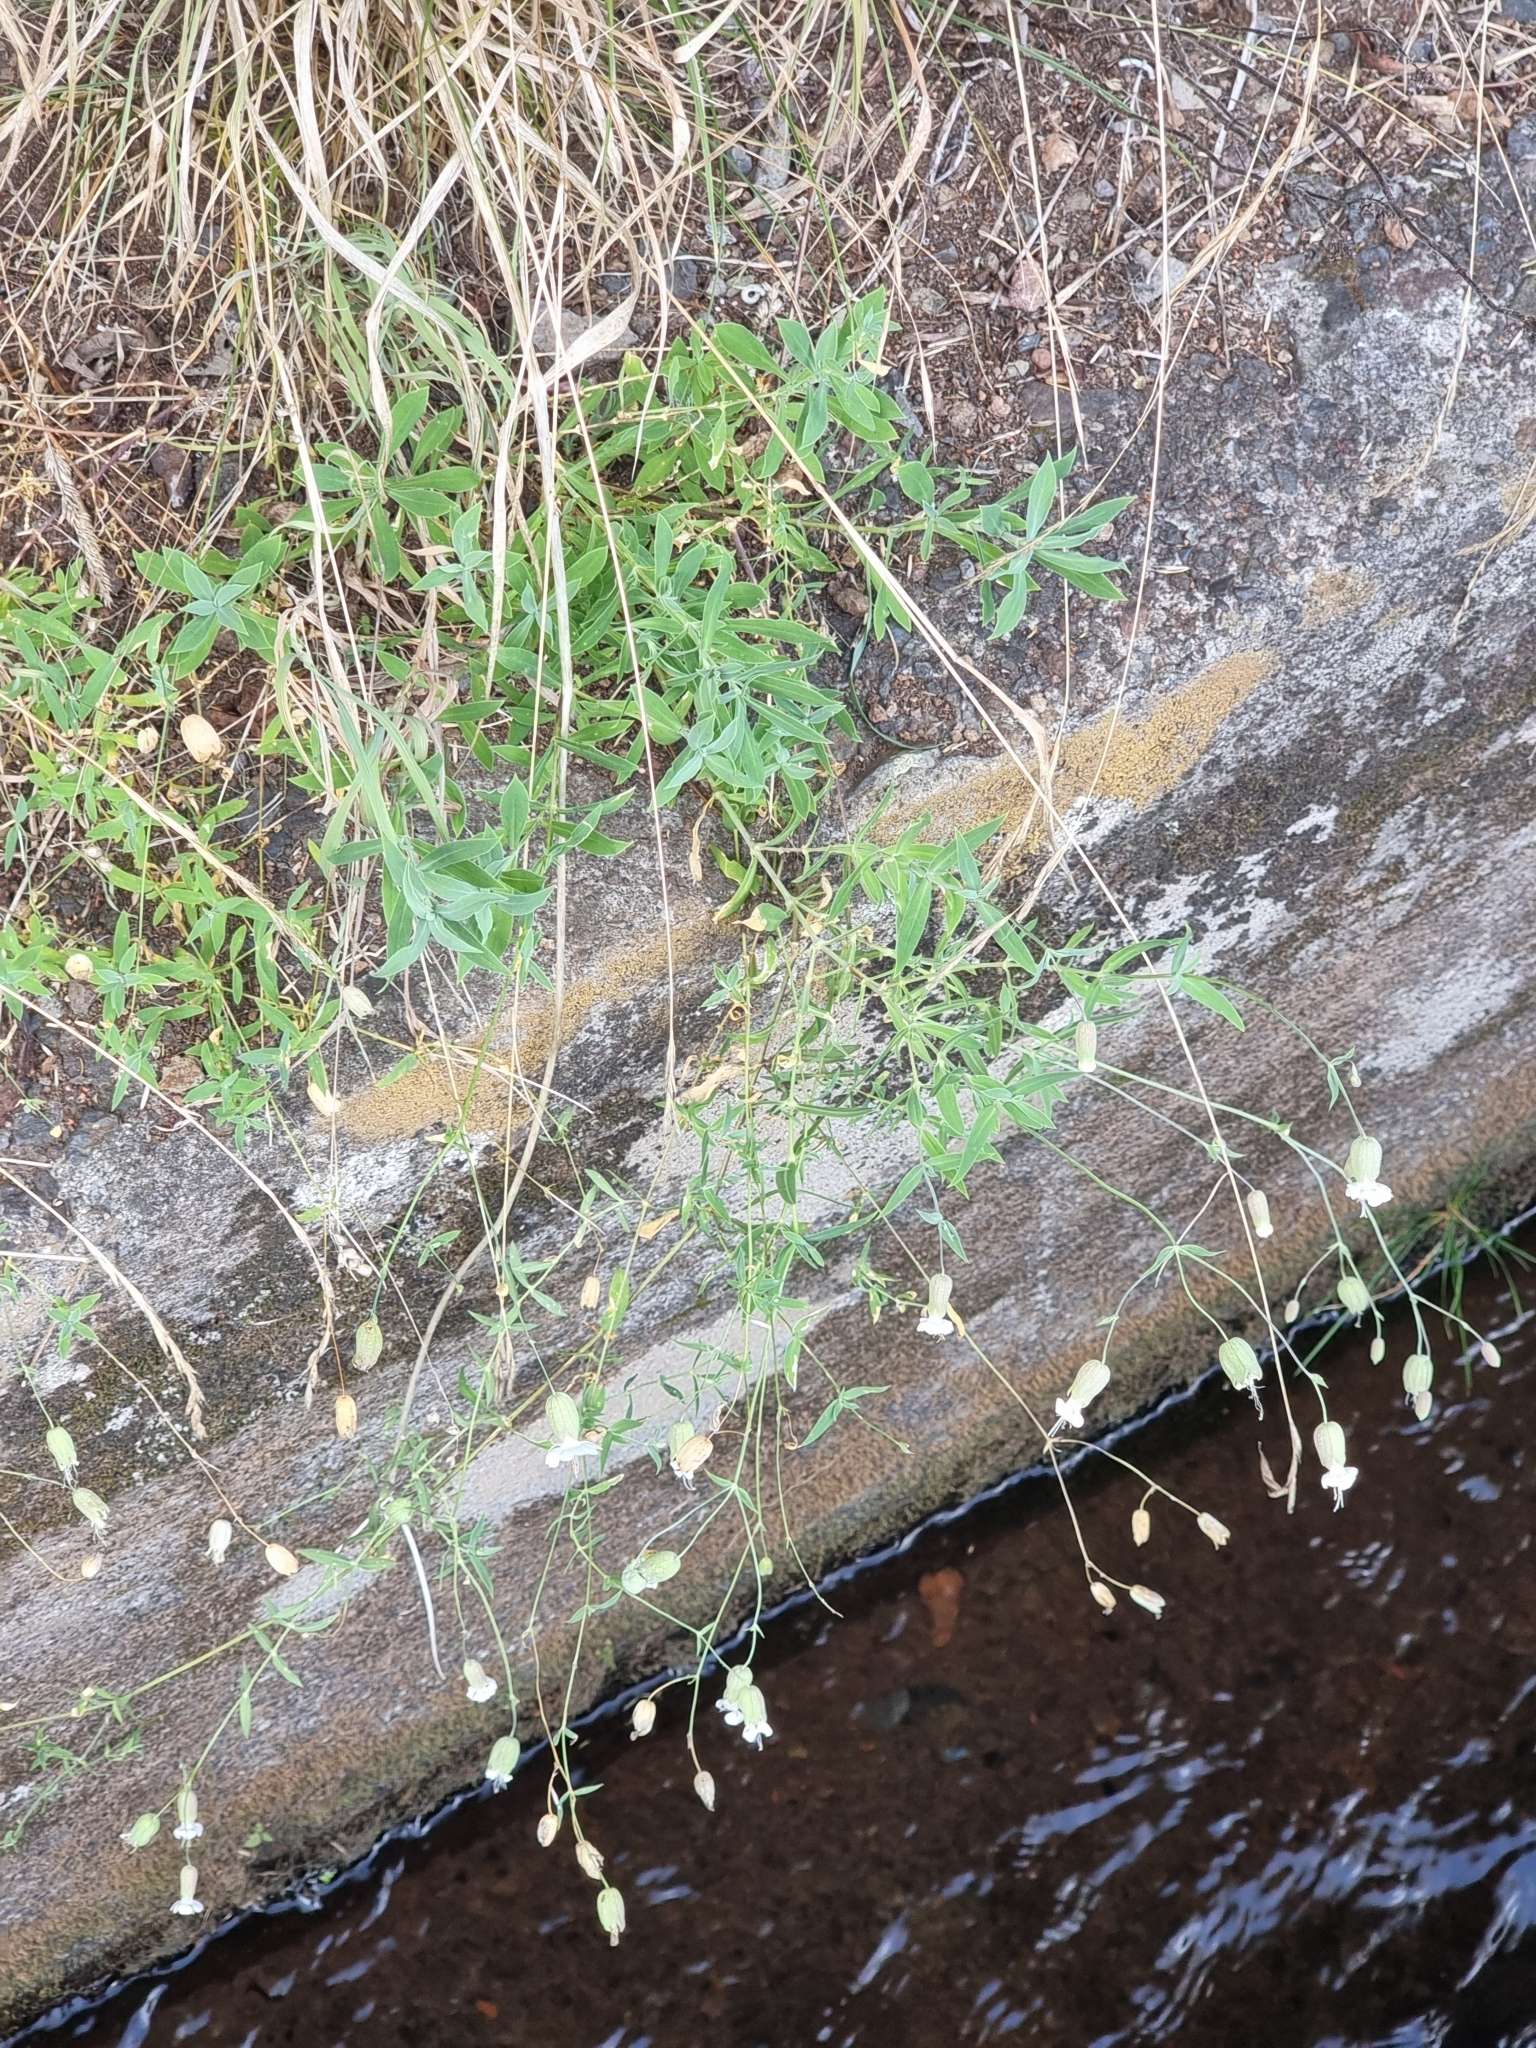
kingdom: Plantae
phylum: Tracheophyta
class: Magnoliopsida
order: Caryophyllales
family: Caryophyllaceae
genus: Silene
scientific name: Silene vulgaris
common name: Bladder campion
